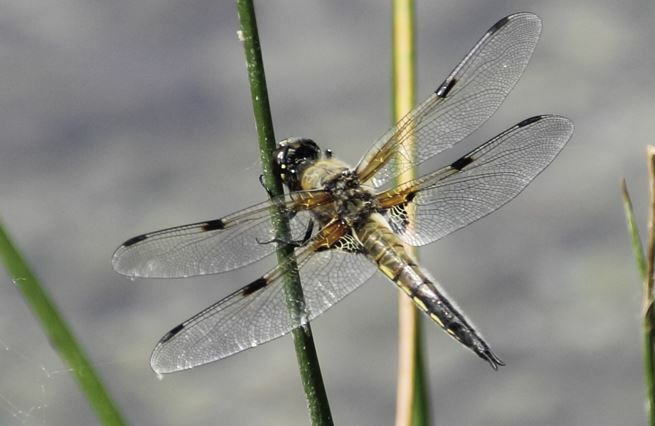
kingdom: Animalia
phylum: Arthropoda
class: Insecta
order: Odonata
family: Libellulidae
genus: Libellula
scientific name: Libellula quadrimaculata
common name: Four-spotted chaser
